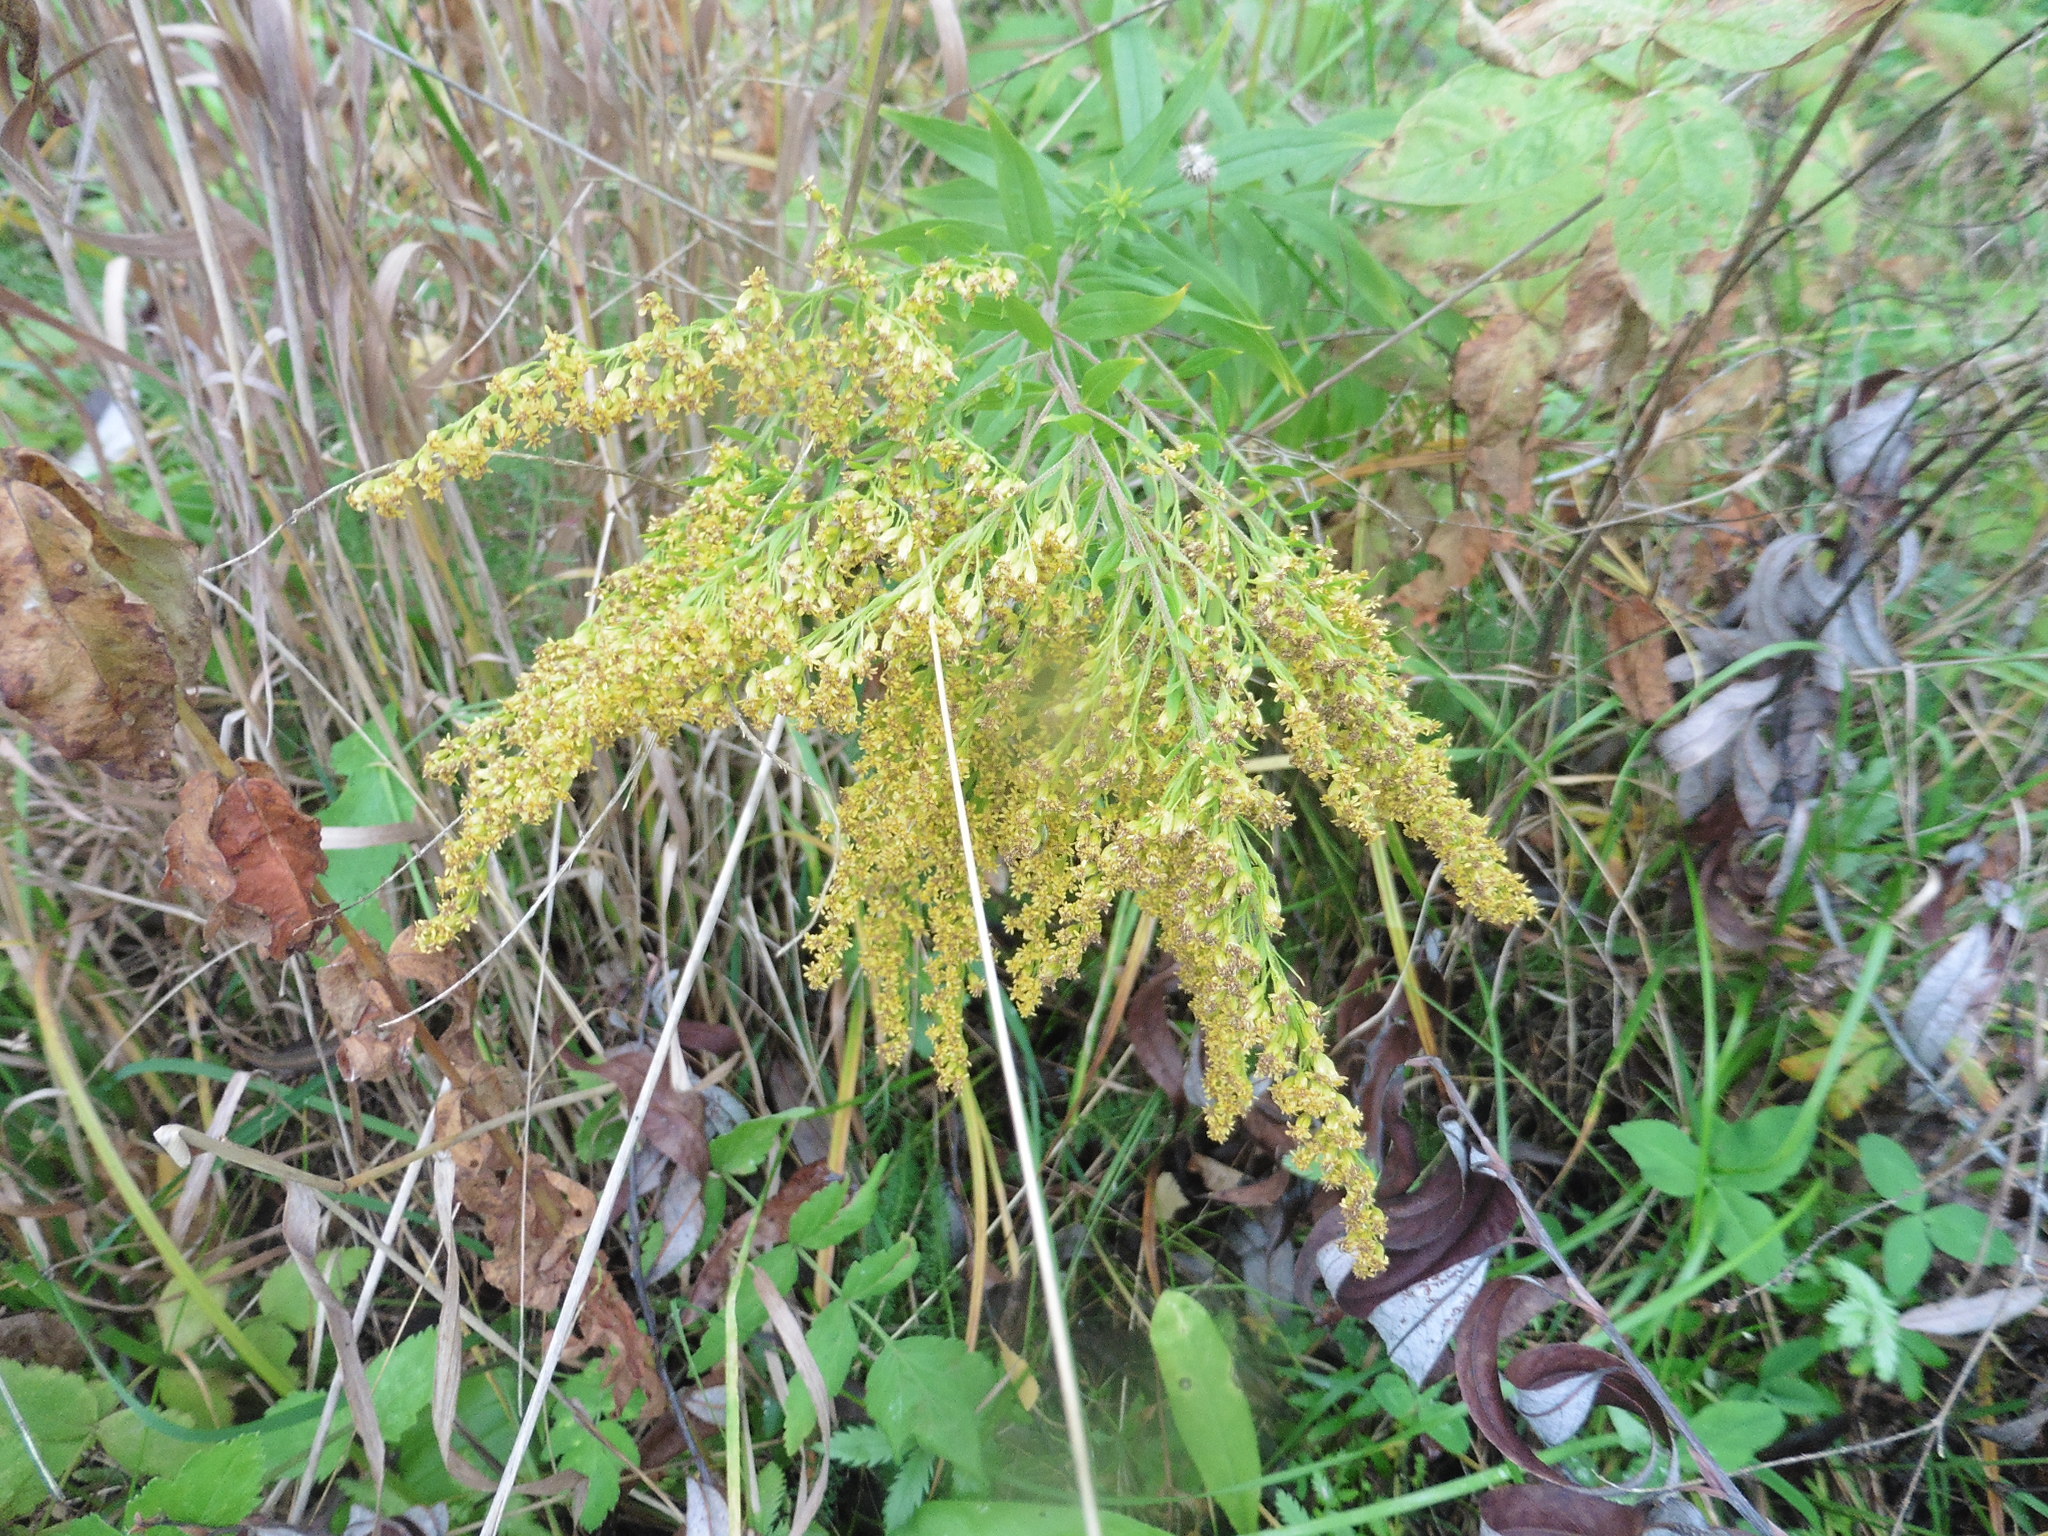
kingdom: Plantae
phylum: Tracheophyta
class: Magnoliopsida
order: Asterales
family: Asteraceae
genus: Solidago
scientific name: Solidago canadensis
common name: Canada goldenrod
